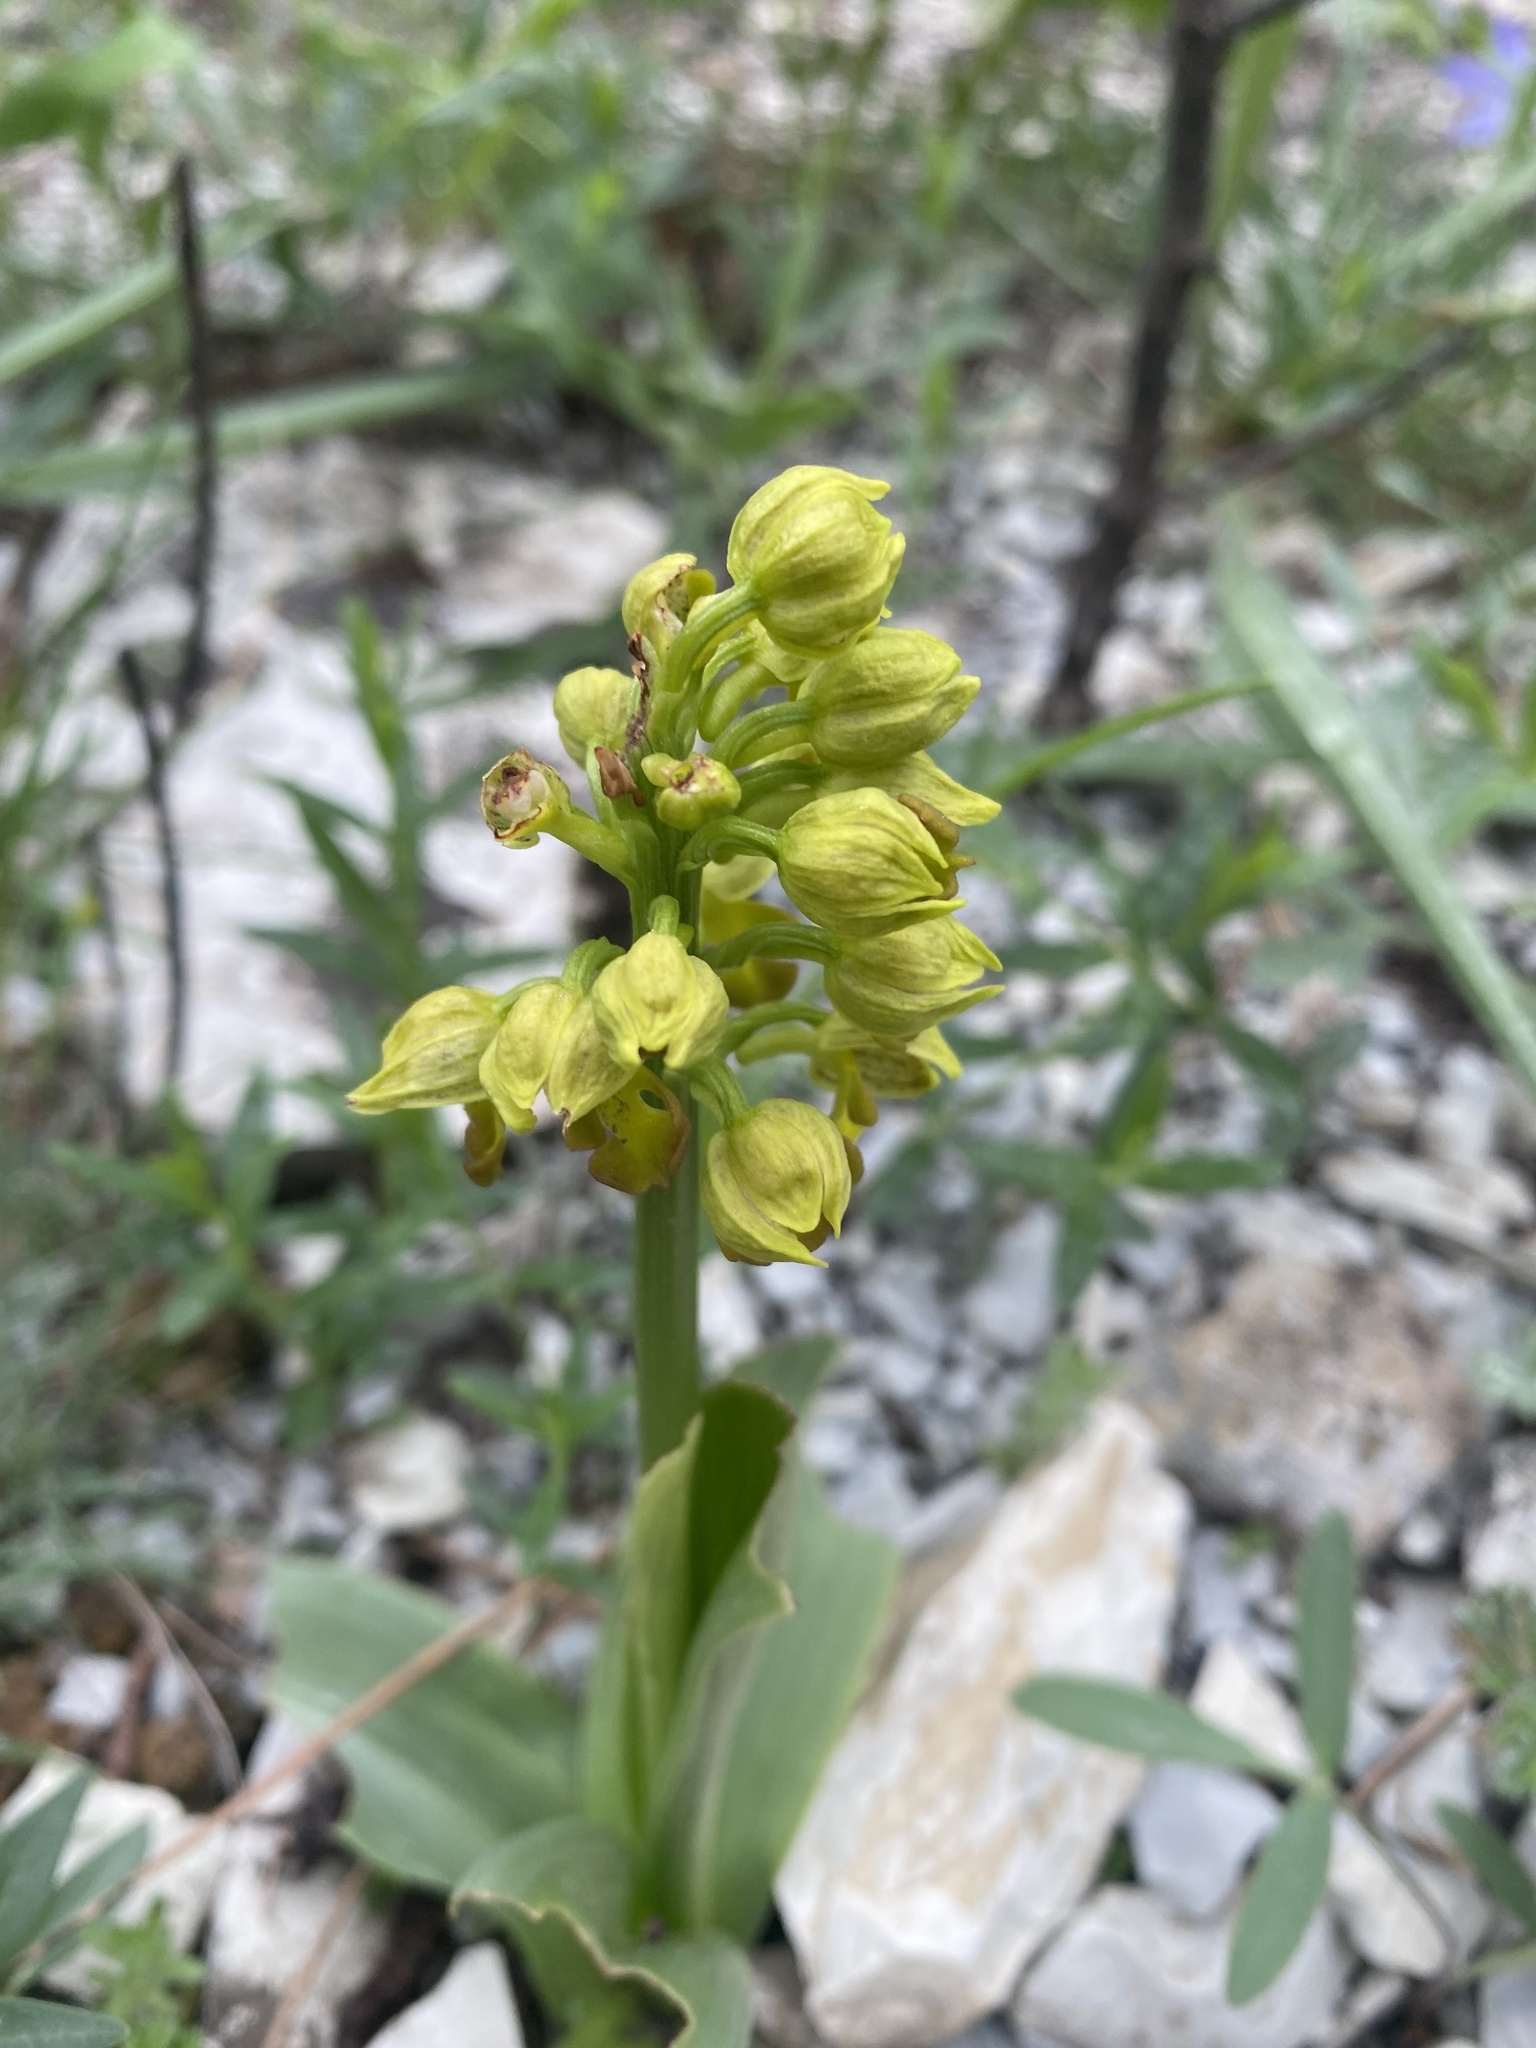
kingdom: Plantae
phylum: Tracheophyta
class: Liliopsida
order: Asparagales
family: Orchidaceae
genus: Orchis
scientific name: Orchis punctulata
